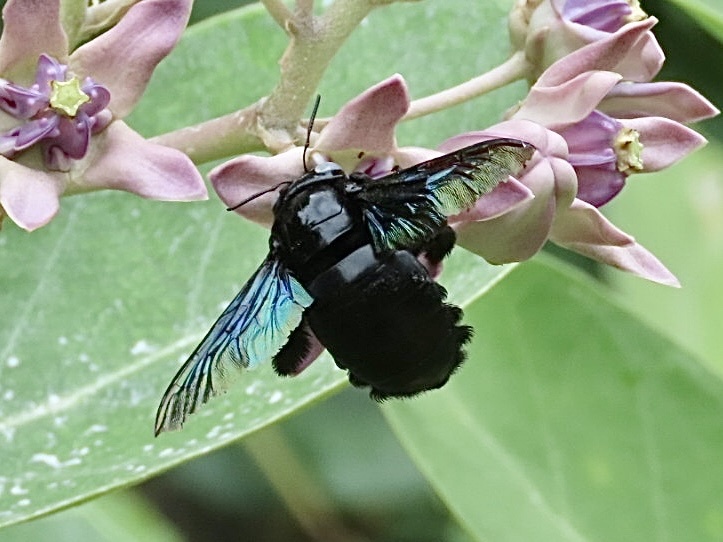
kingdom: Animalia
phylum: Arthropoda
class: Insecta
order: Hymenoptera
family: Apidae
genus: Xylocopa
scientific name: Xylocopa tenuiscapa
